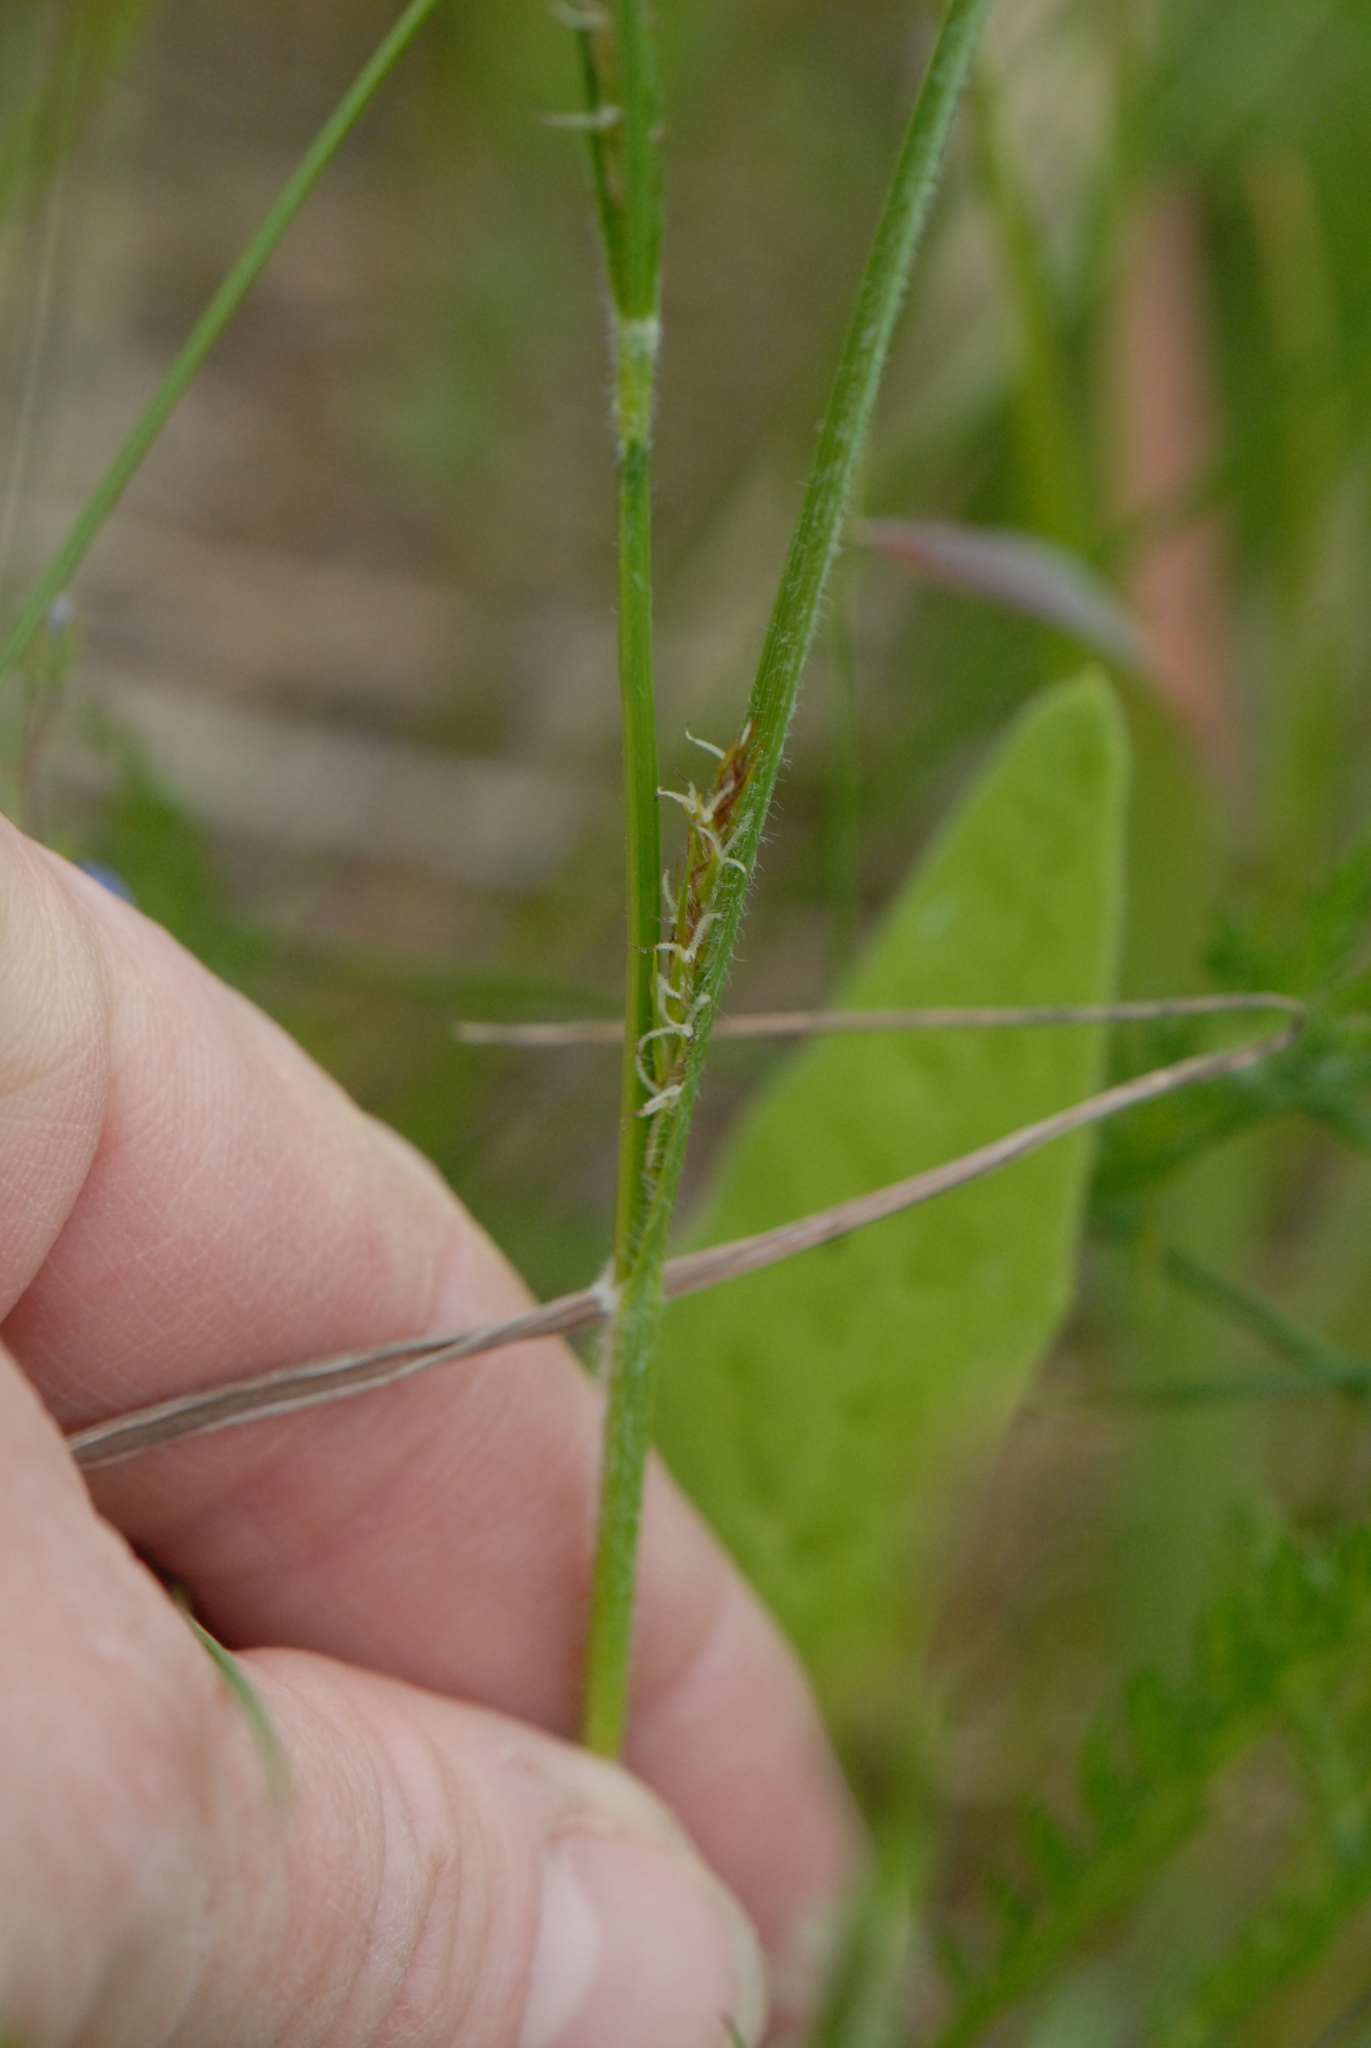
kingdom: Plantae
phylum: Tracheophyta
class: Liliopsida
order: Poales
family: Cyperaceae
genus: Carex
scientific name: Carex hirta
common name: Hairy sedge
